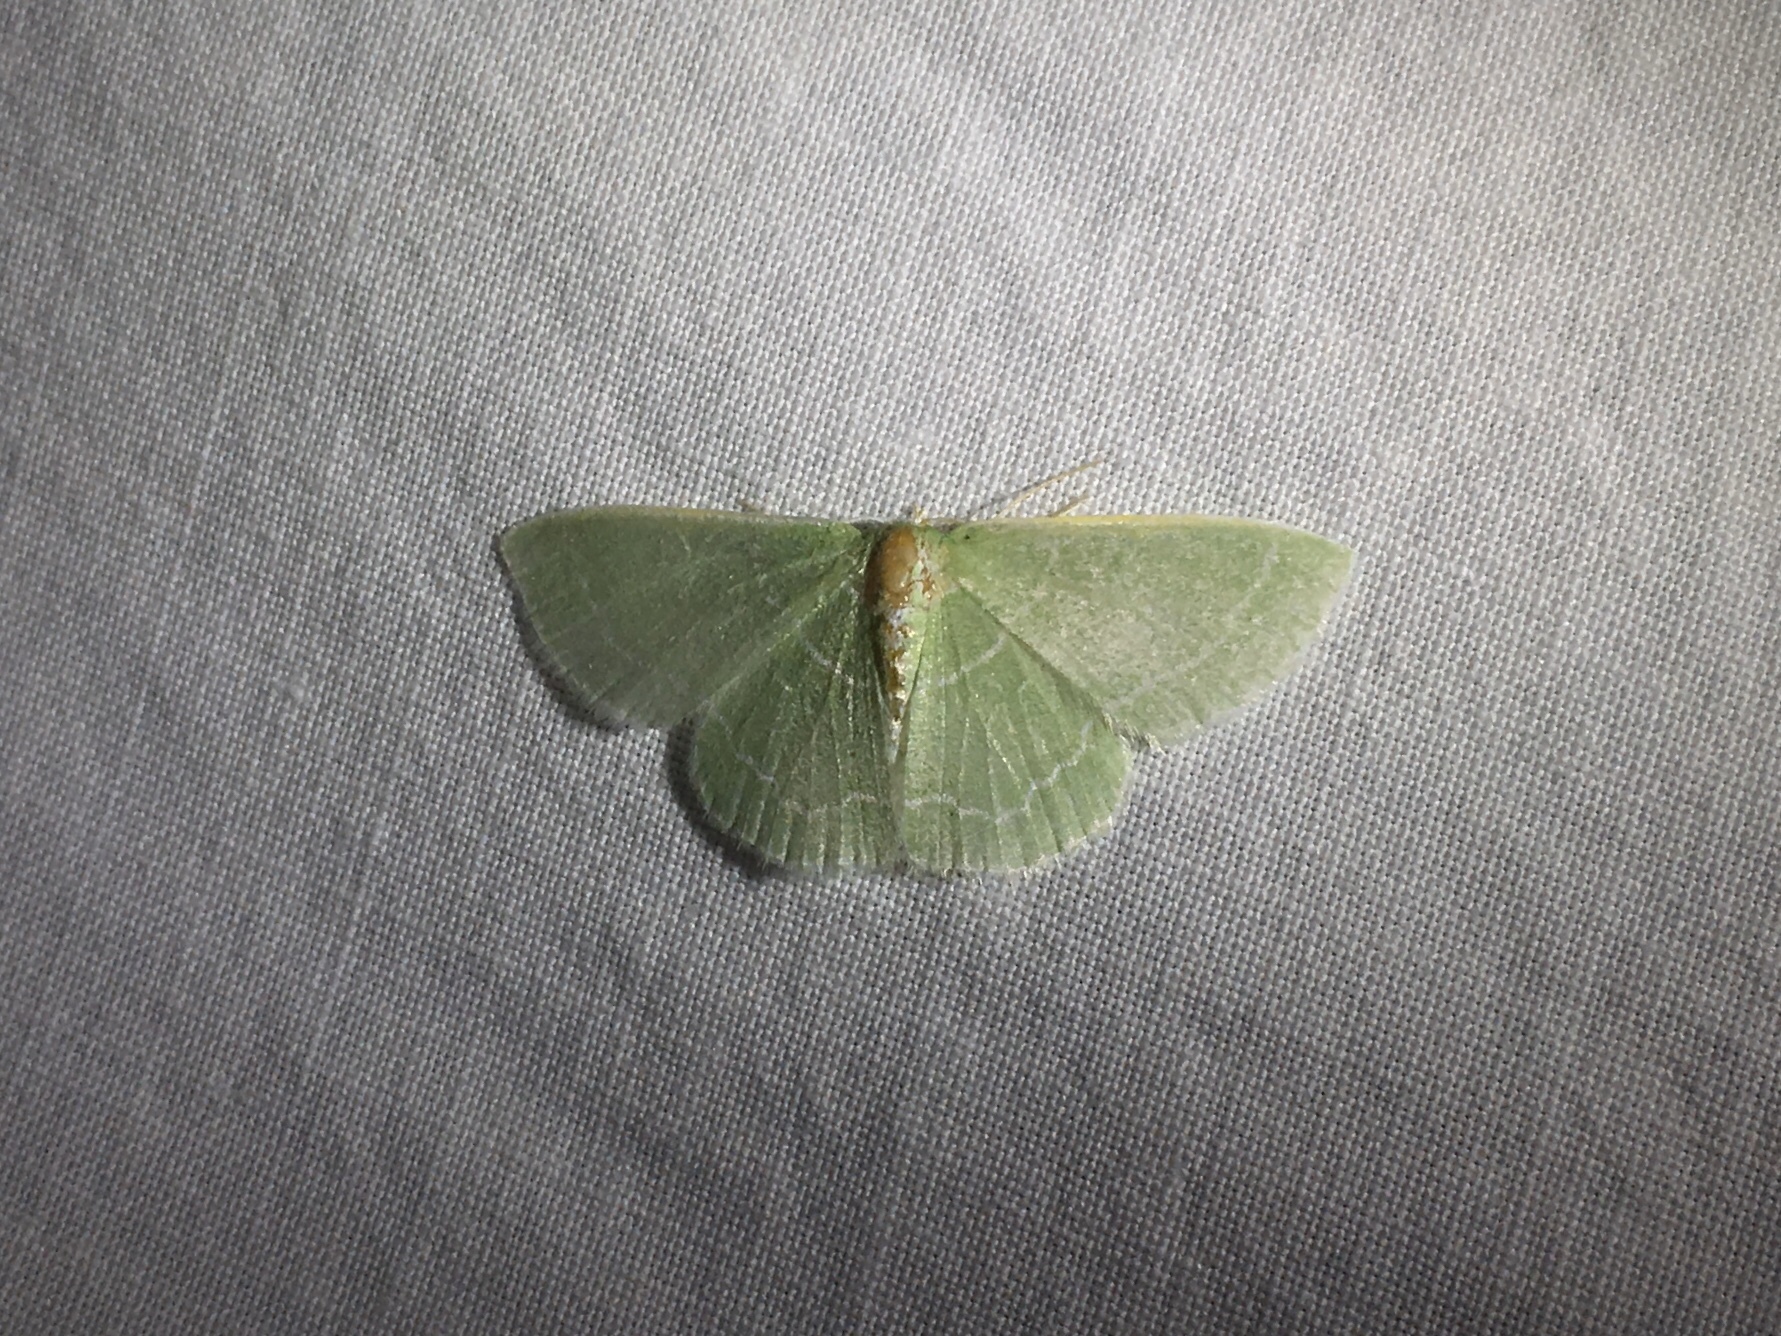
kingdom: Animalia
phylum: Arthropoda
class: Insecta
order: Lepidoptera
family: Geometridae
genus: Synchlora
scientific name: Synchlora aerata
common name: Wavy-lined emerald
